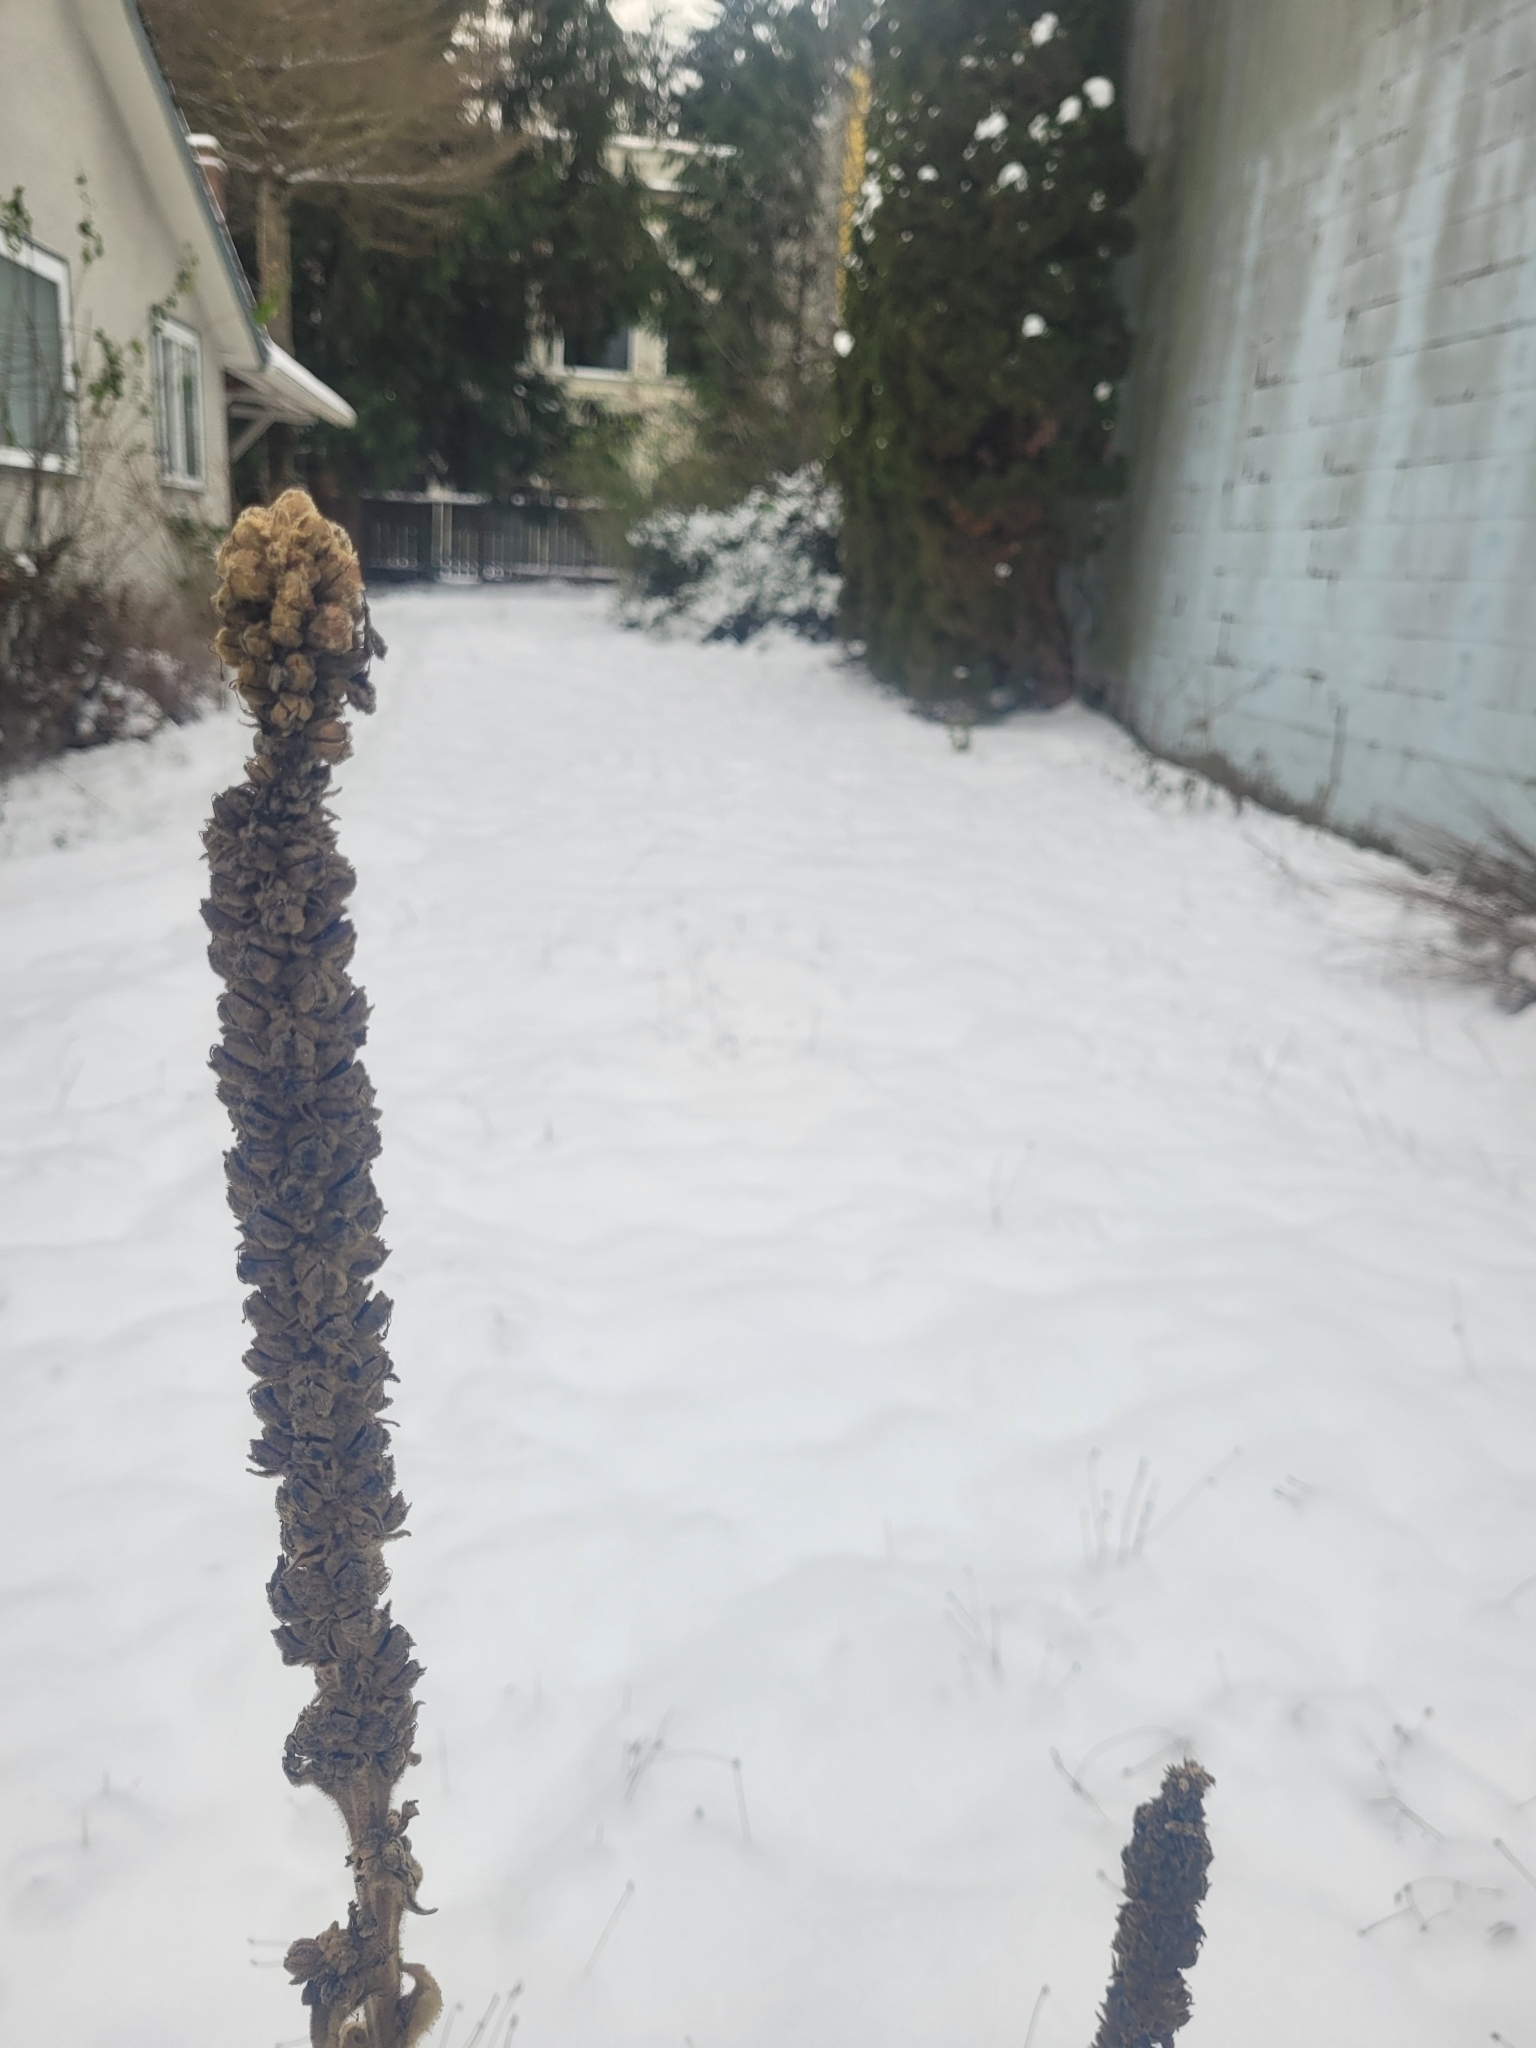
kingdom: Plantae
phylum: Tracheophyta
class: Magnoliopsida
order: Lamiales
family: Scrophulariaceae
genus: Verbascum
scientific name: Verbascum thapsus
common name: Common mullein
